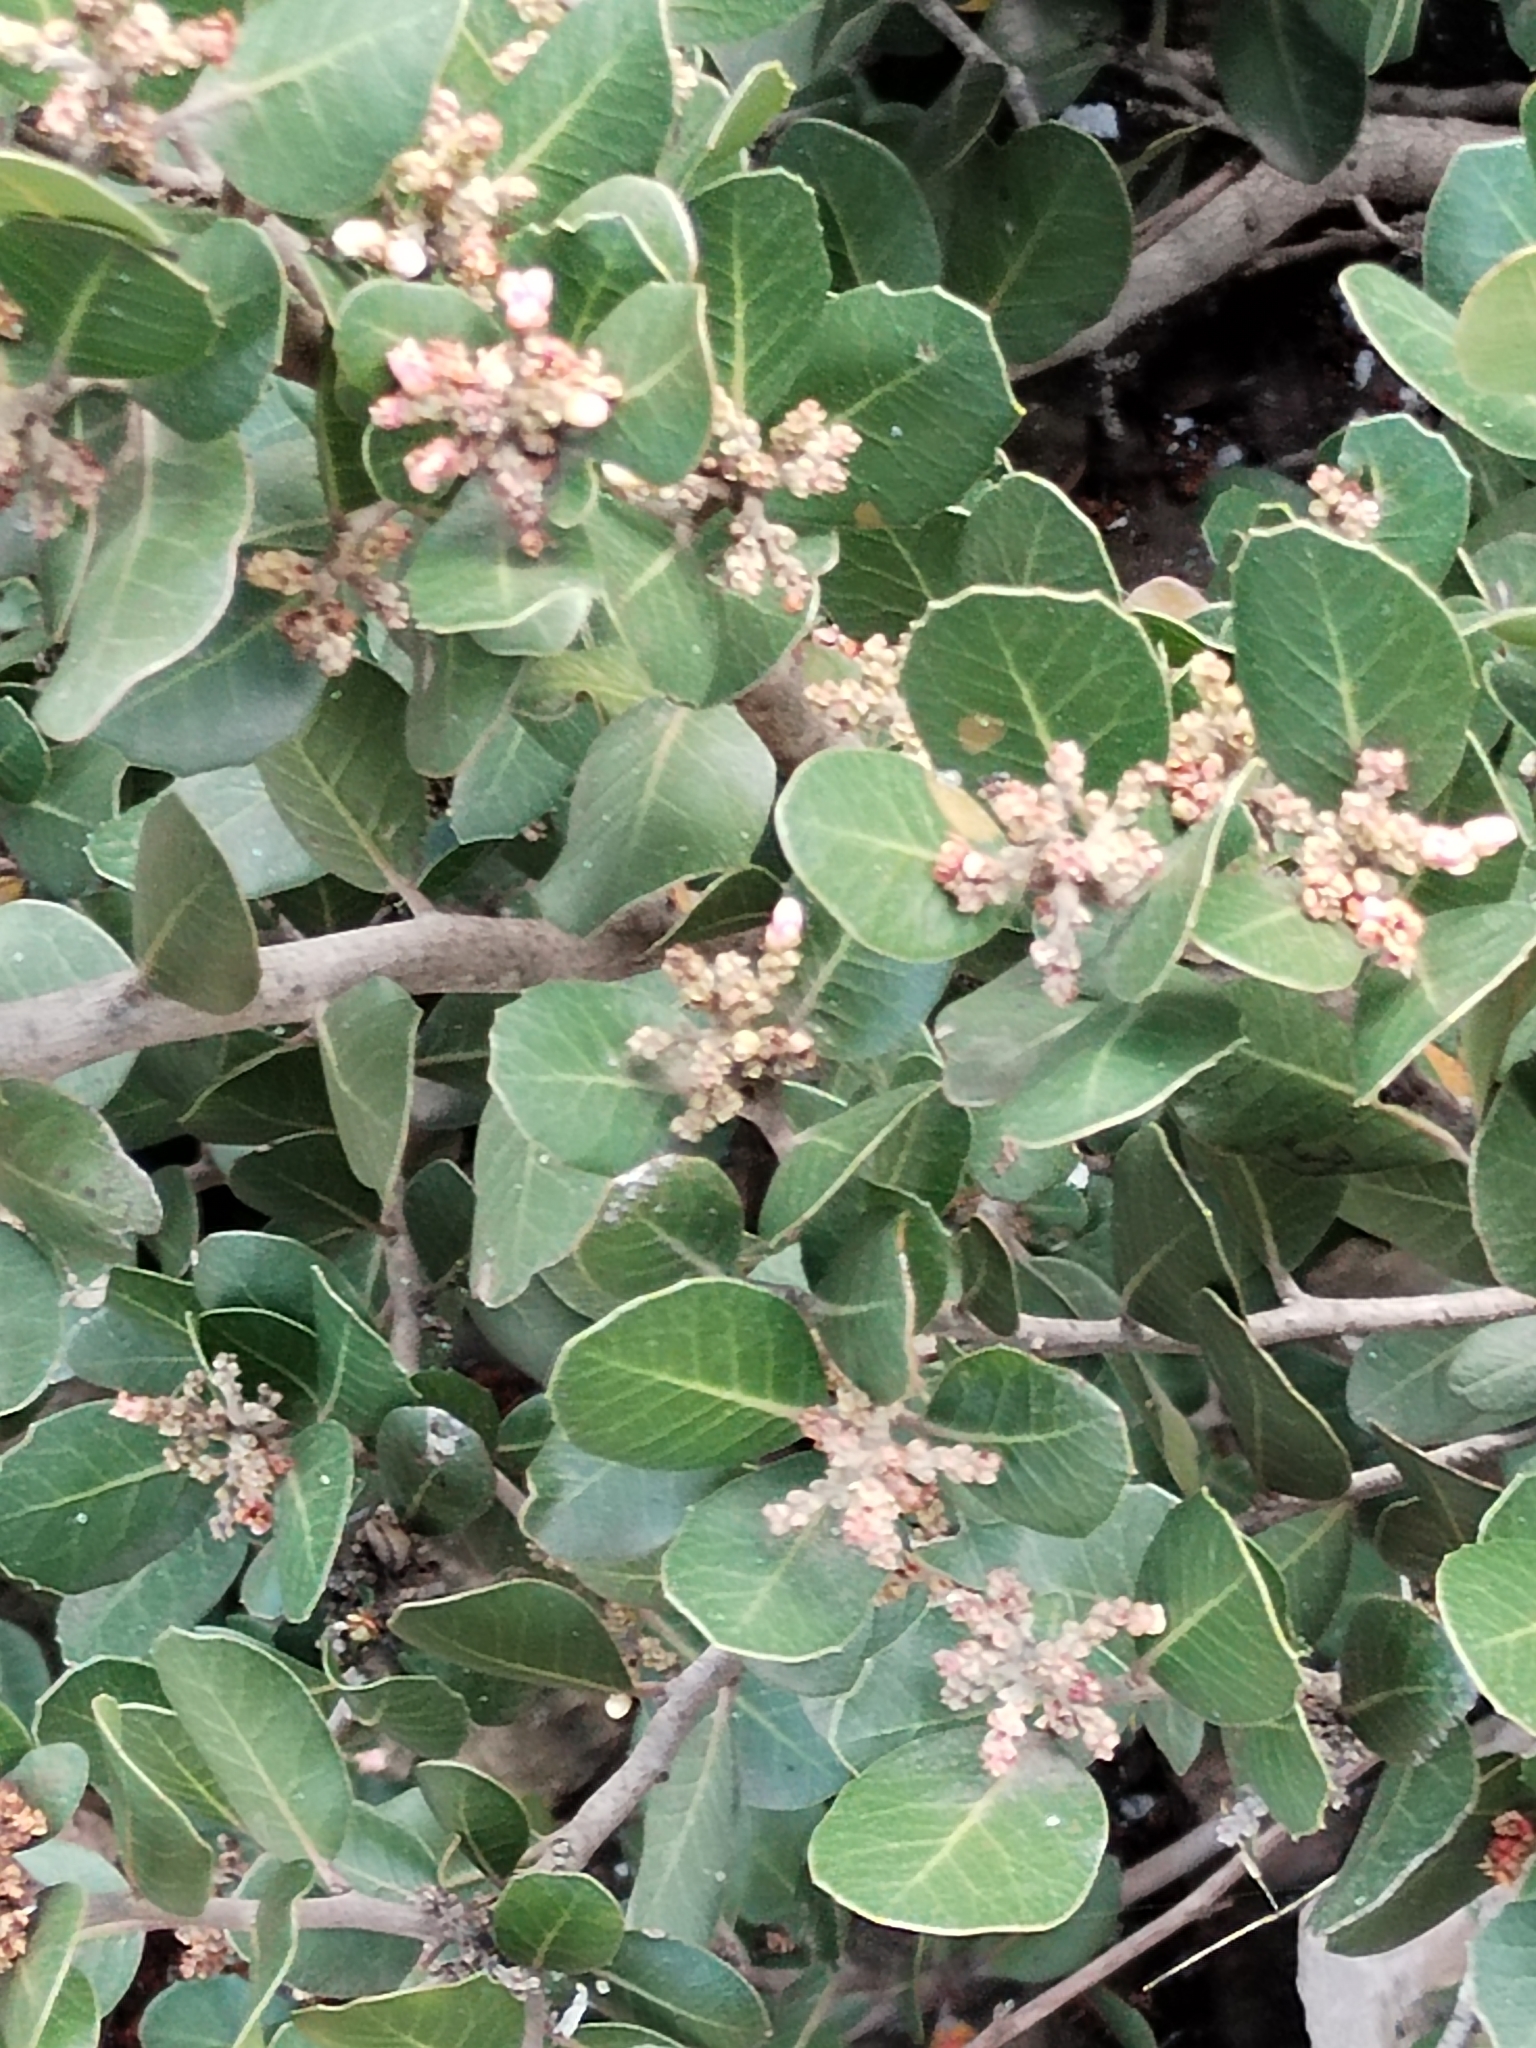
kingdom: Plantae
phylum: Tracheophyta
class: Magnoliopsida
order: Sapindales
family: Anacardiaceae
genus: Rhus
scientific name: Rhus integrifolia
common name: Lemonade sumac
